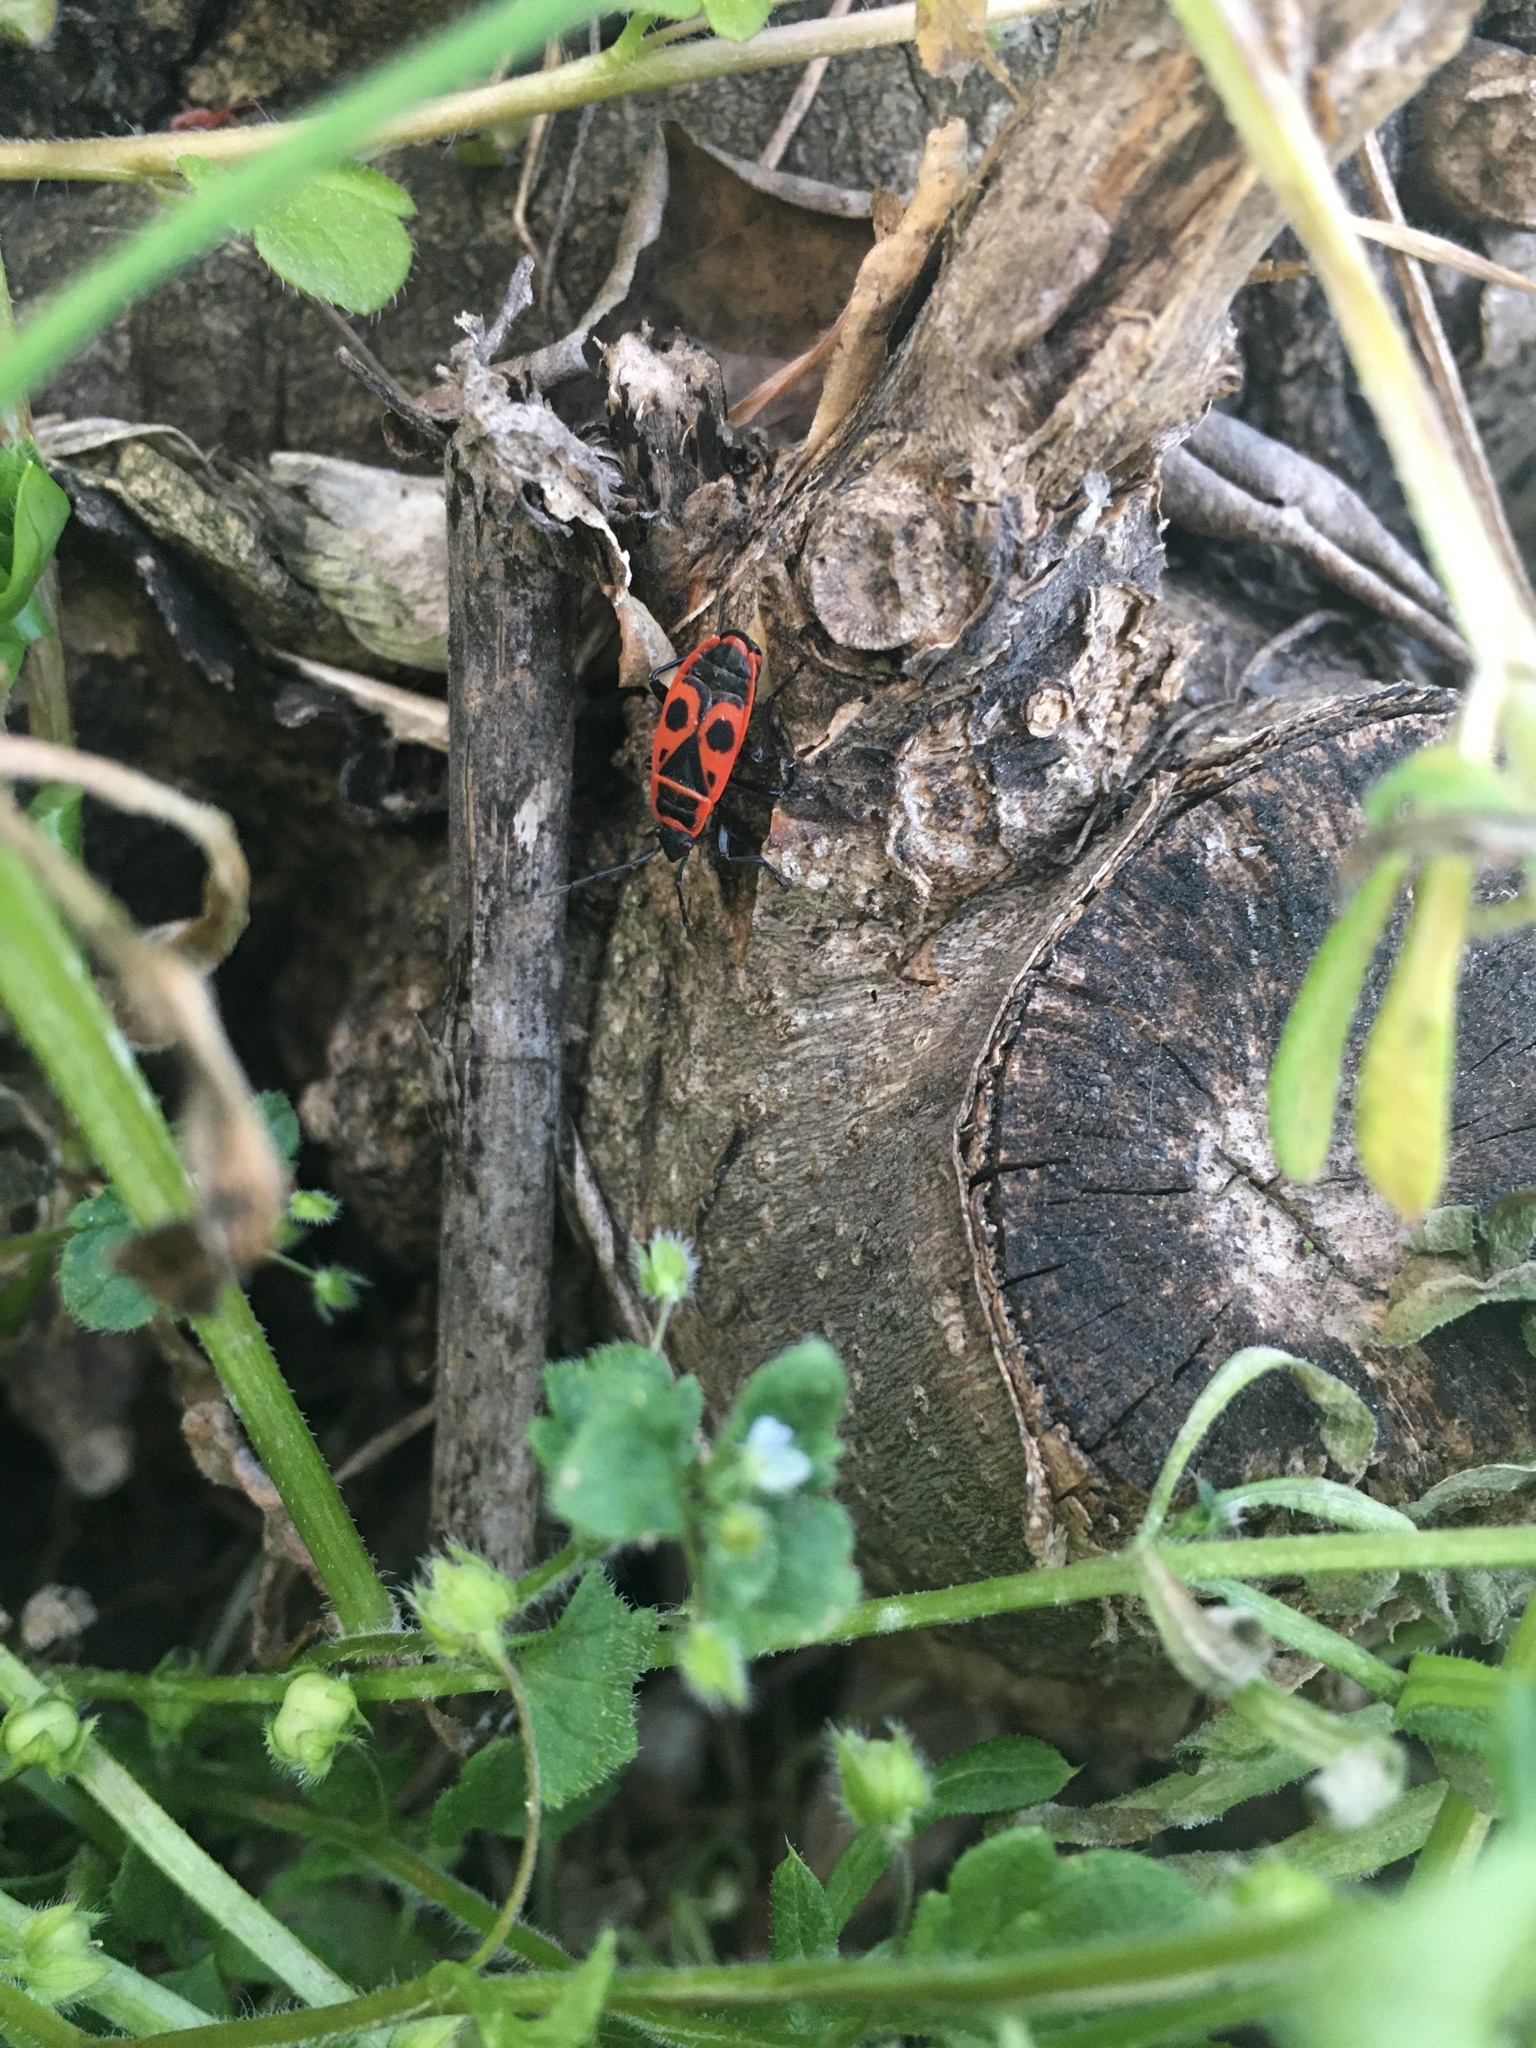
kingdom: Animalia
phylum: Arthropoda
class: Insecta
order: Hemiptera
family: Pyrrhocoridae
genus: Pyrrhocoris
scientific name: Pyrrhocoris apterus
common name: Firebug
